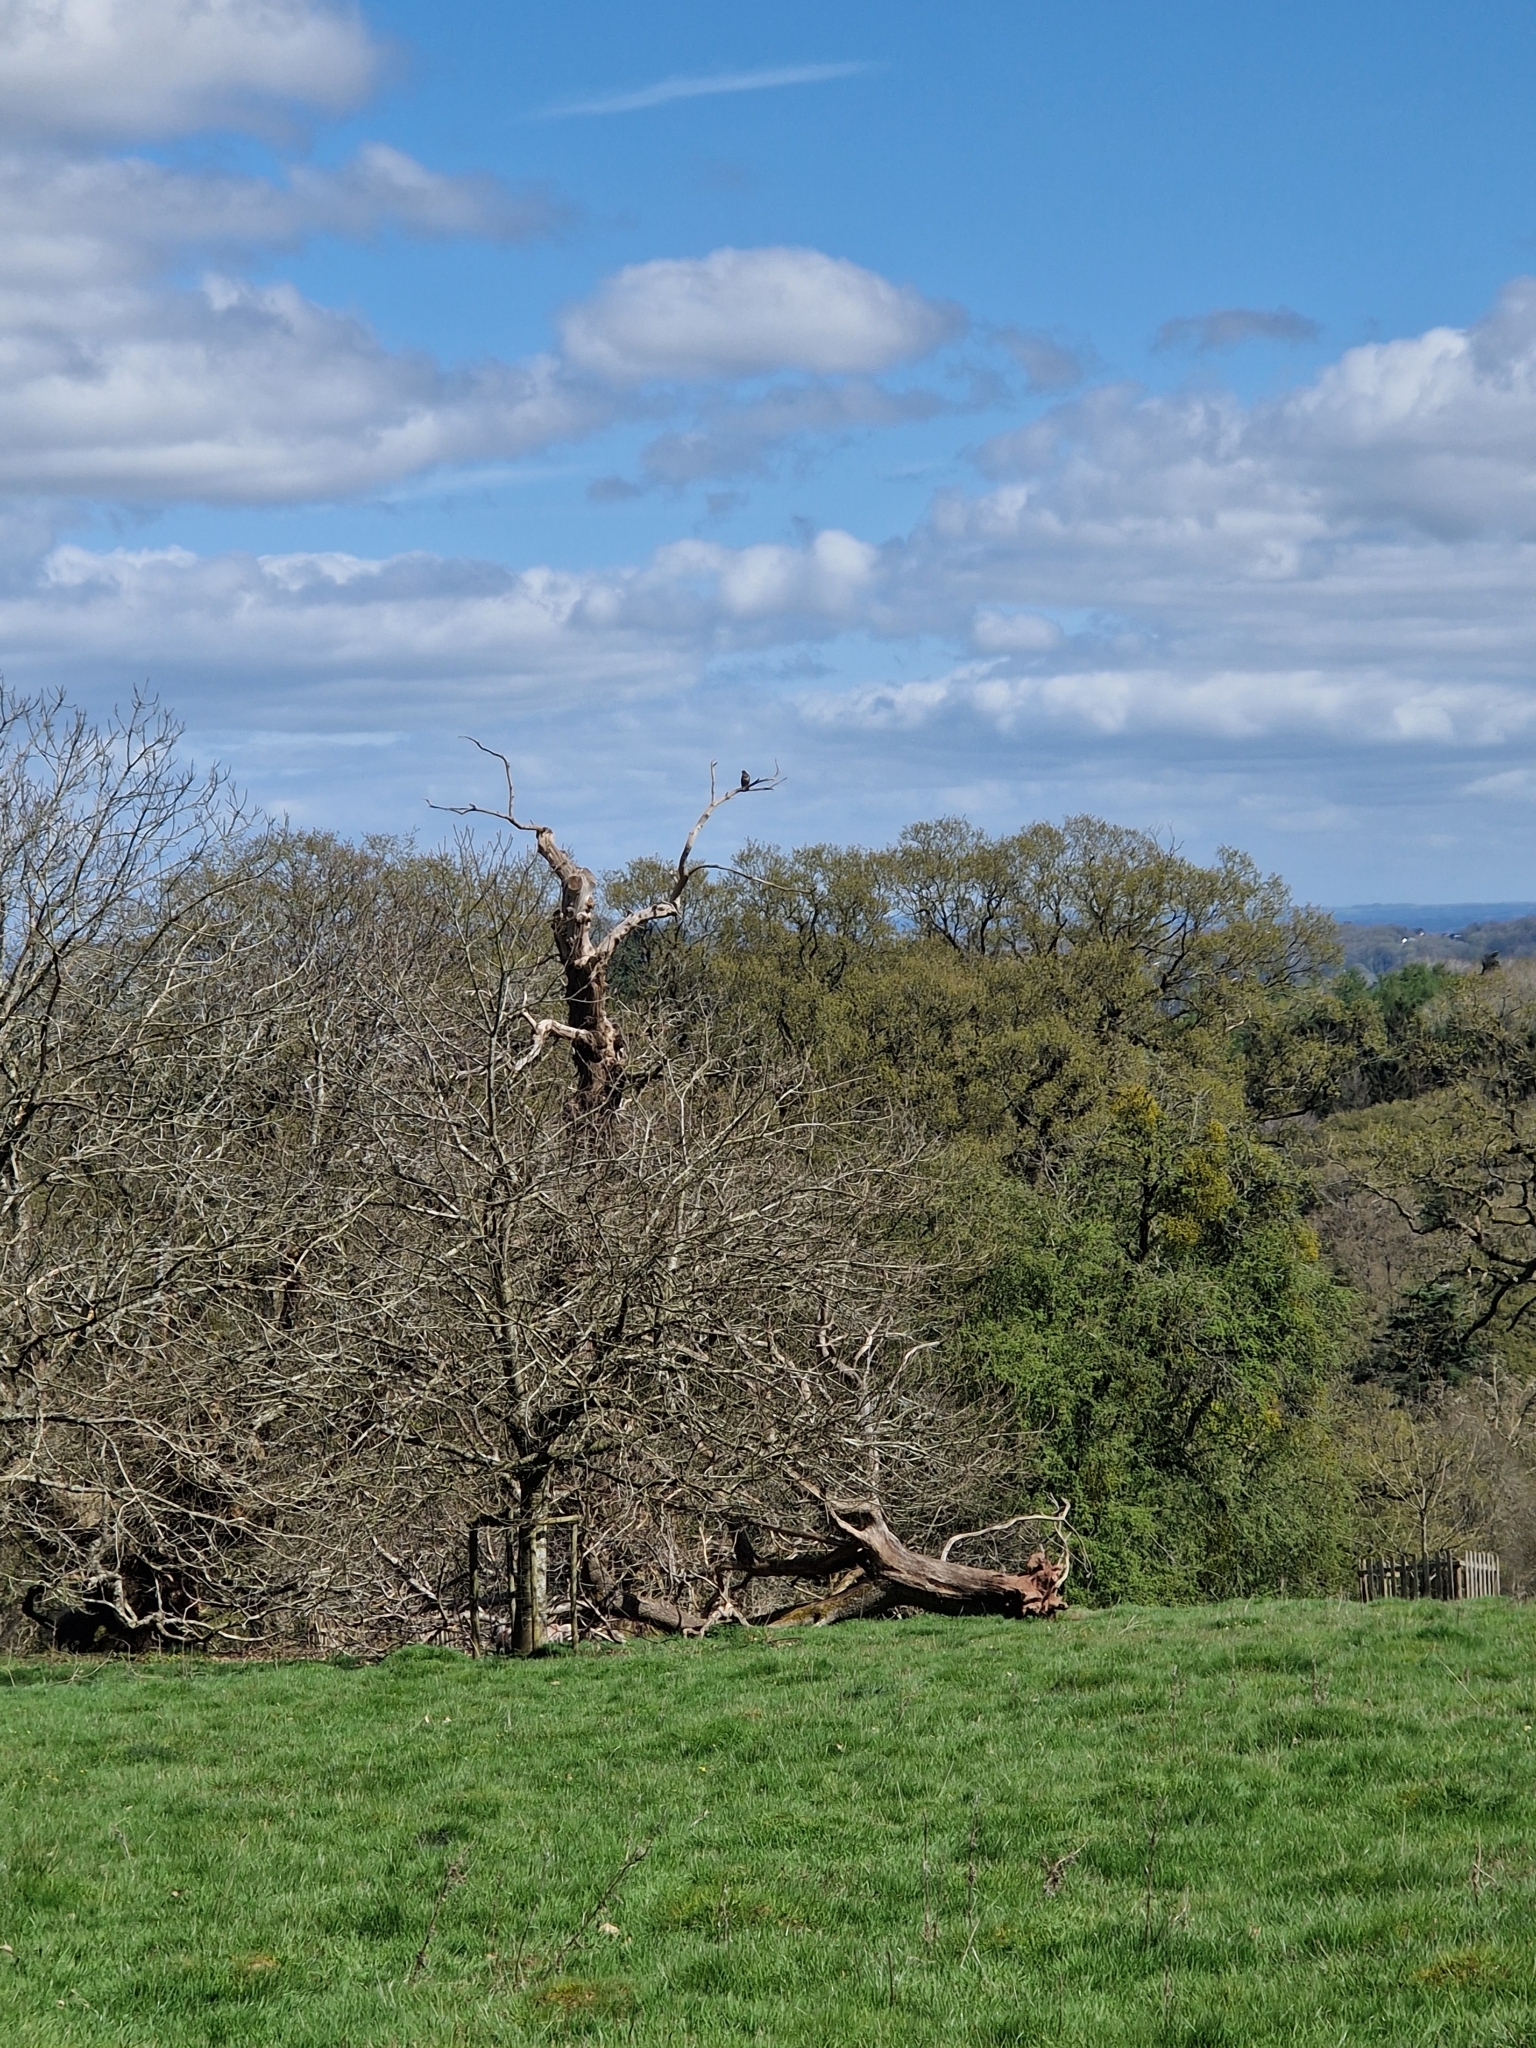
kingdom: Animalia
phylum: Chordata
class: Aves
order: Accipitriformes
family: Accipitridae
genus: Buteo
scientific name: Buteo buteo
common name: Common buzzard
